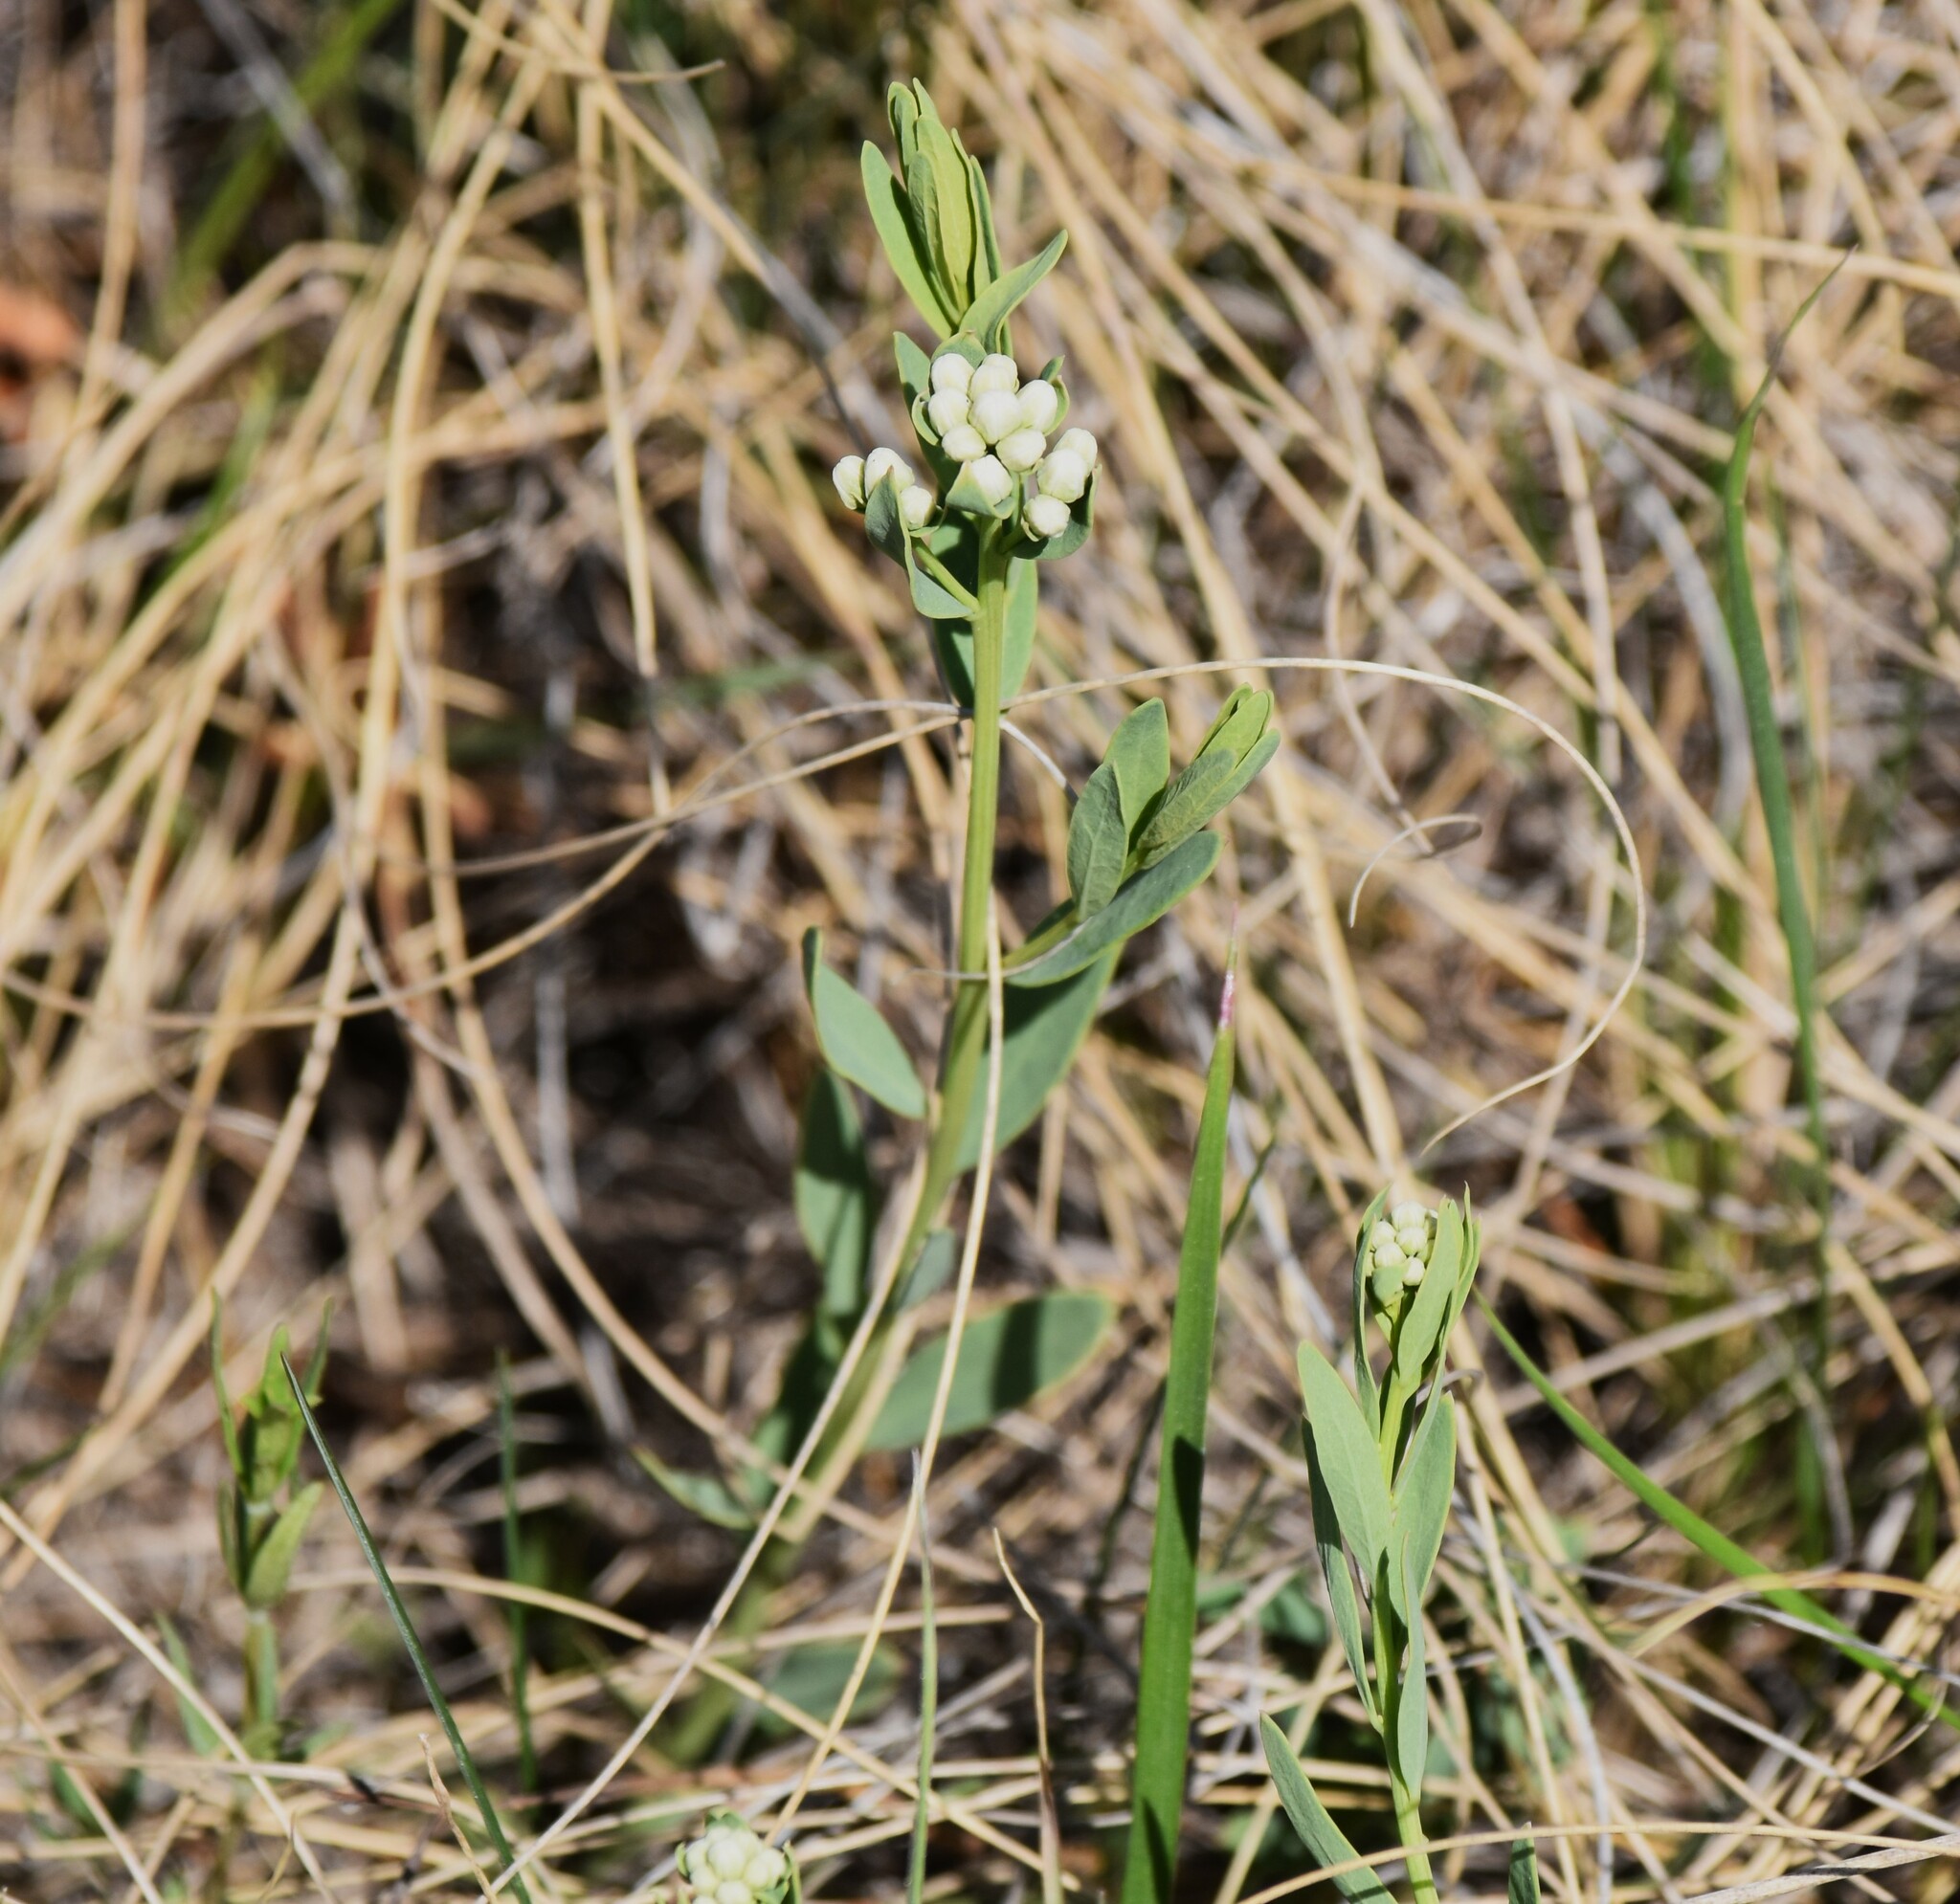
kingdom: Plantae
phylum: Tracheophyta
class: Magnoliopsida
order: Santalales
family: Comandraceae
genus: Comandra
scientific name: Comandra umbellata
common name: Bastard toadflax
